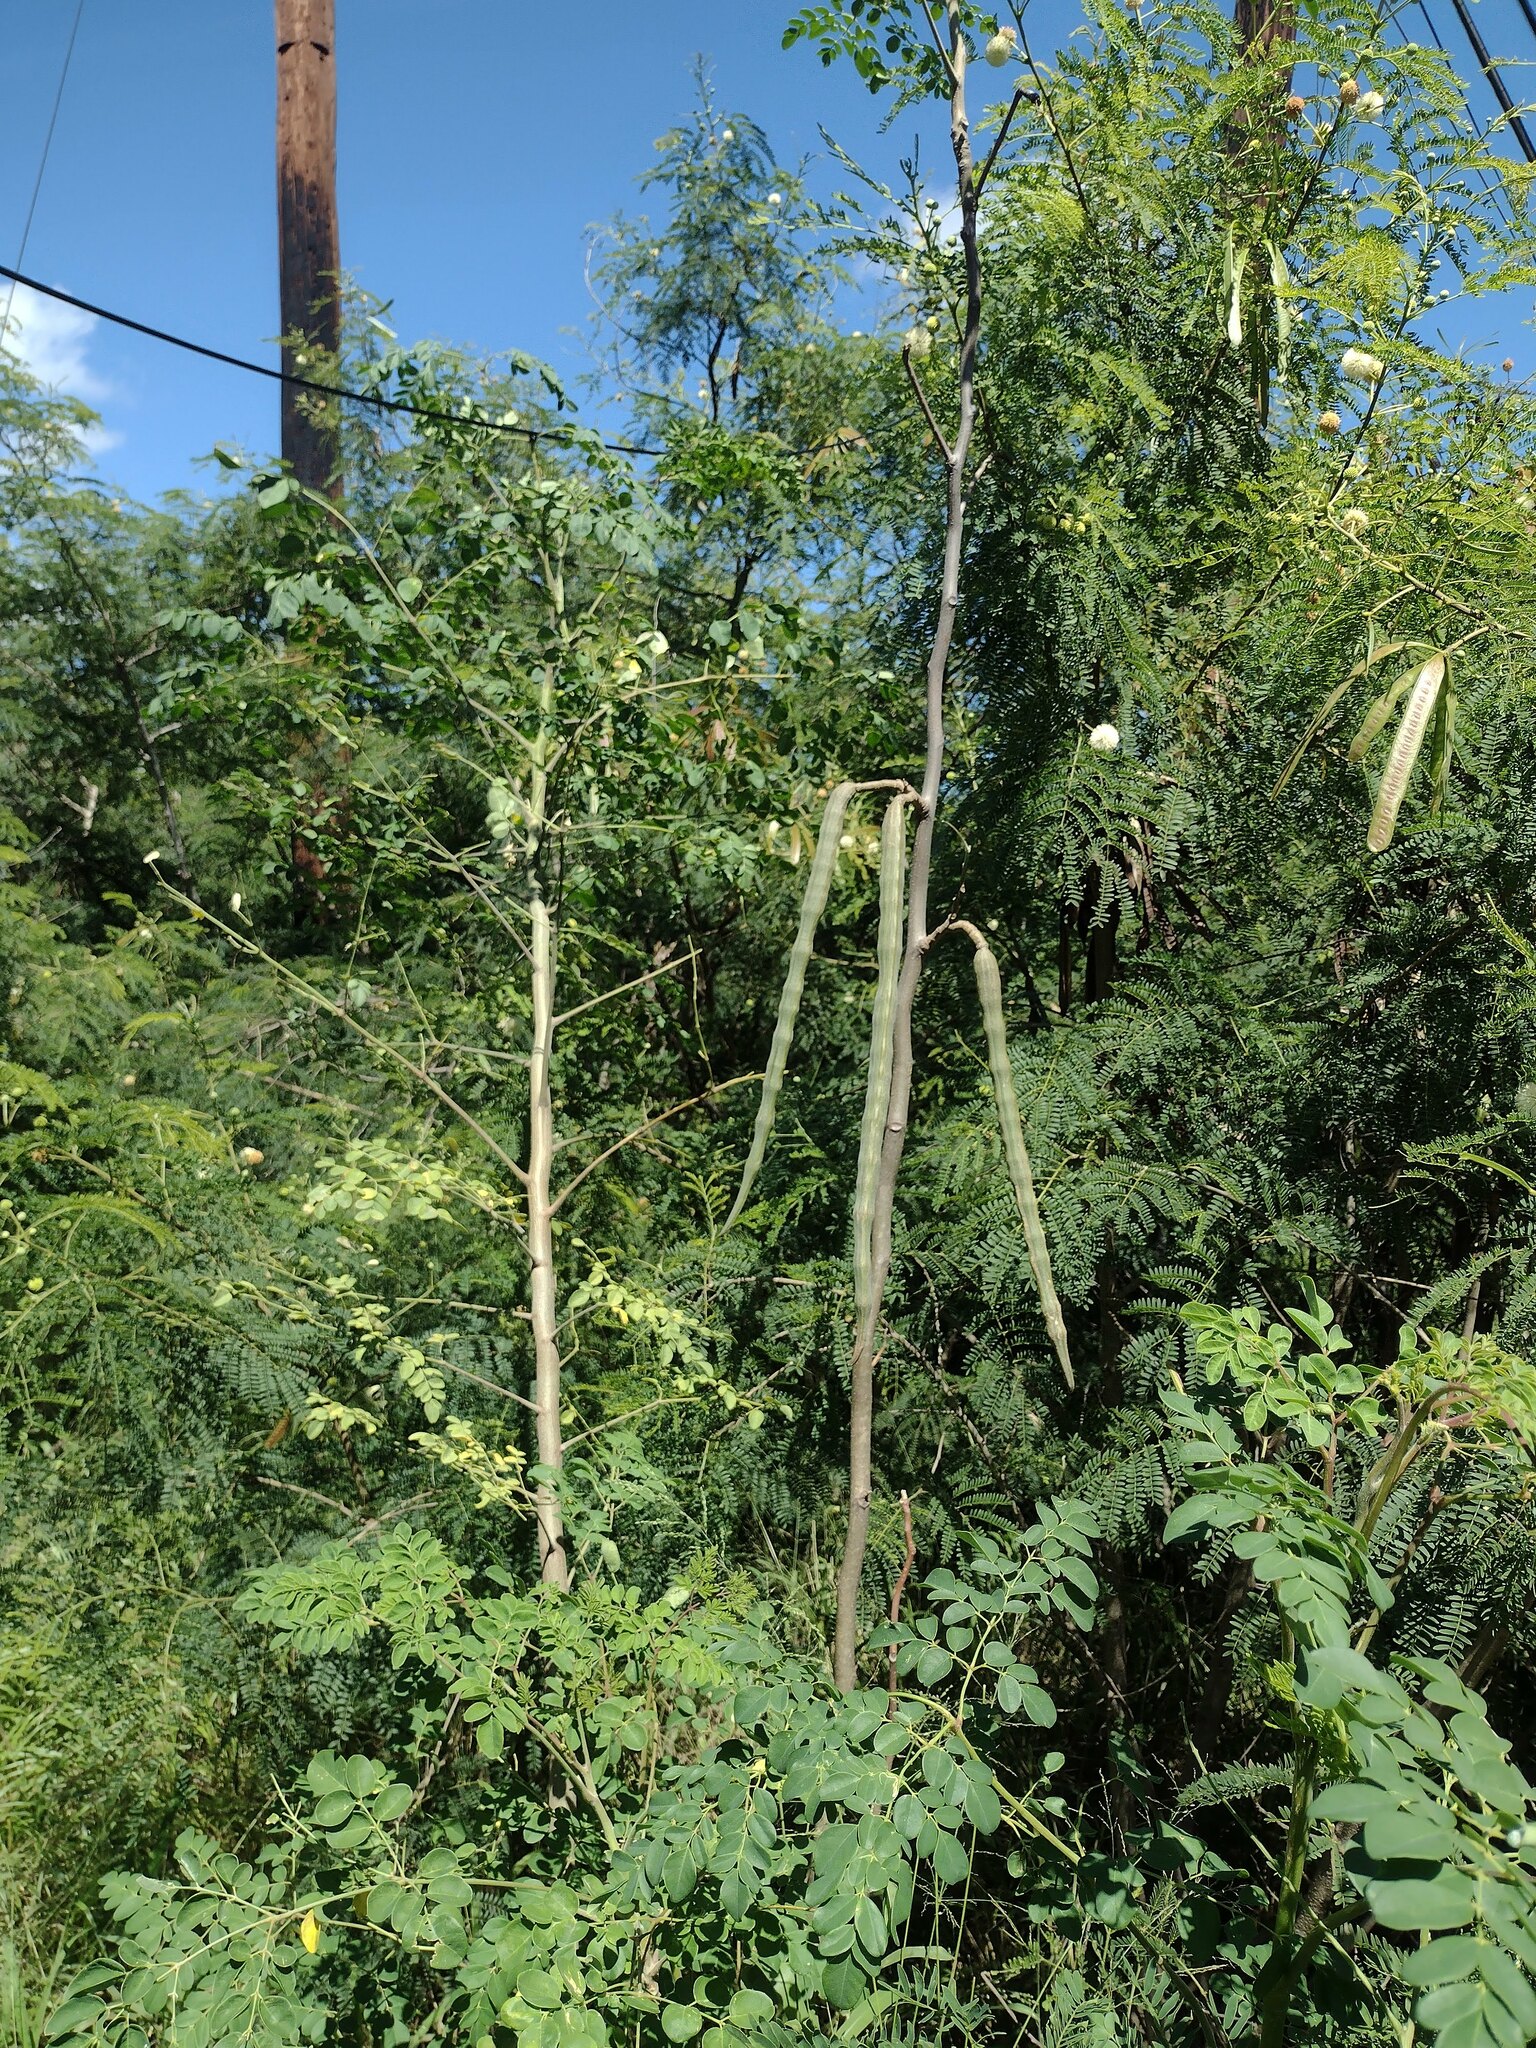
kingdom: Plantae
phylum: Tracheophyta
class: Magnoliopsida
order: Brassicales
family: Moringaceae
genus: Moringa
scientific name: Moringa oleifera
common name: Horseradish-tree
